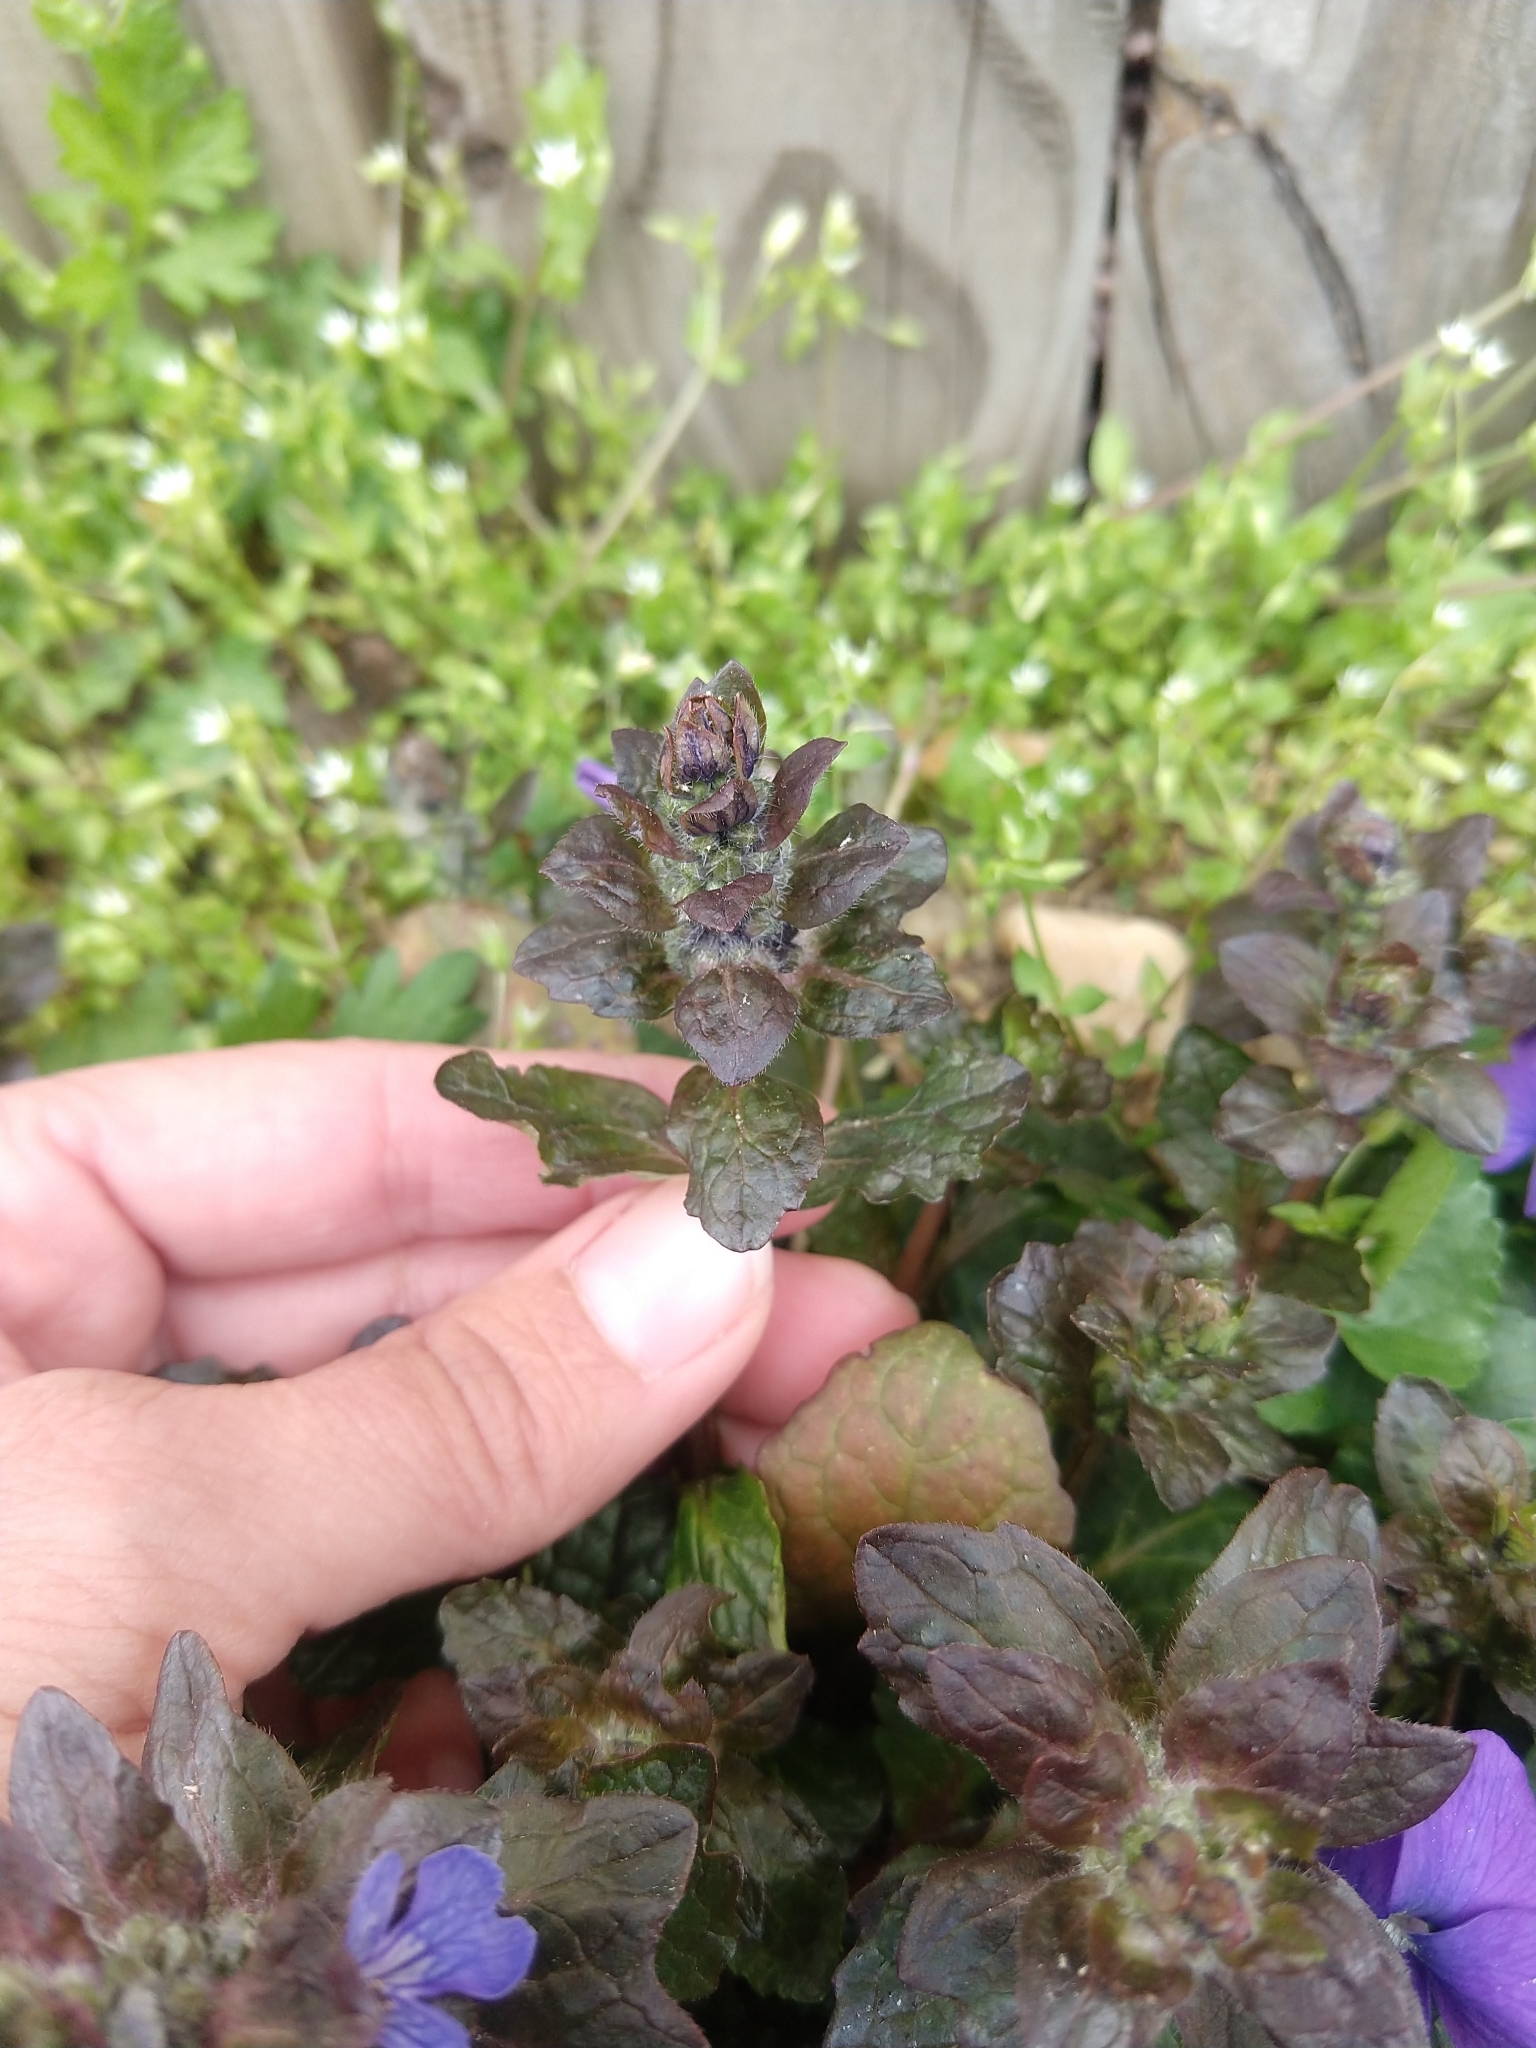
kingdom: Plantae
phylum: Tracheophyta
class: Magnoliopsida
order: Lamiales
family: Lamiaceae
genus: Ajuga
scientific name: Ajuga reptans
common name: Bugle
